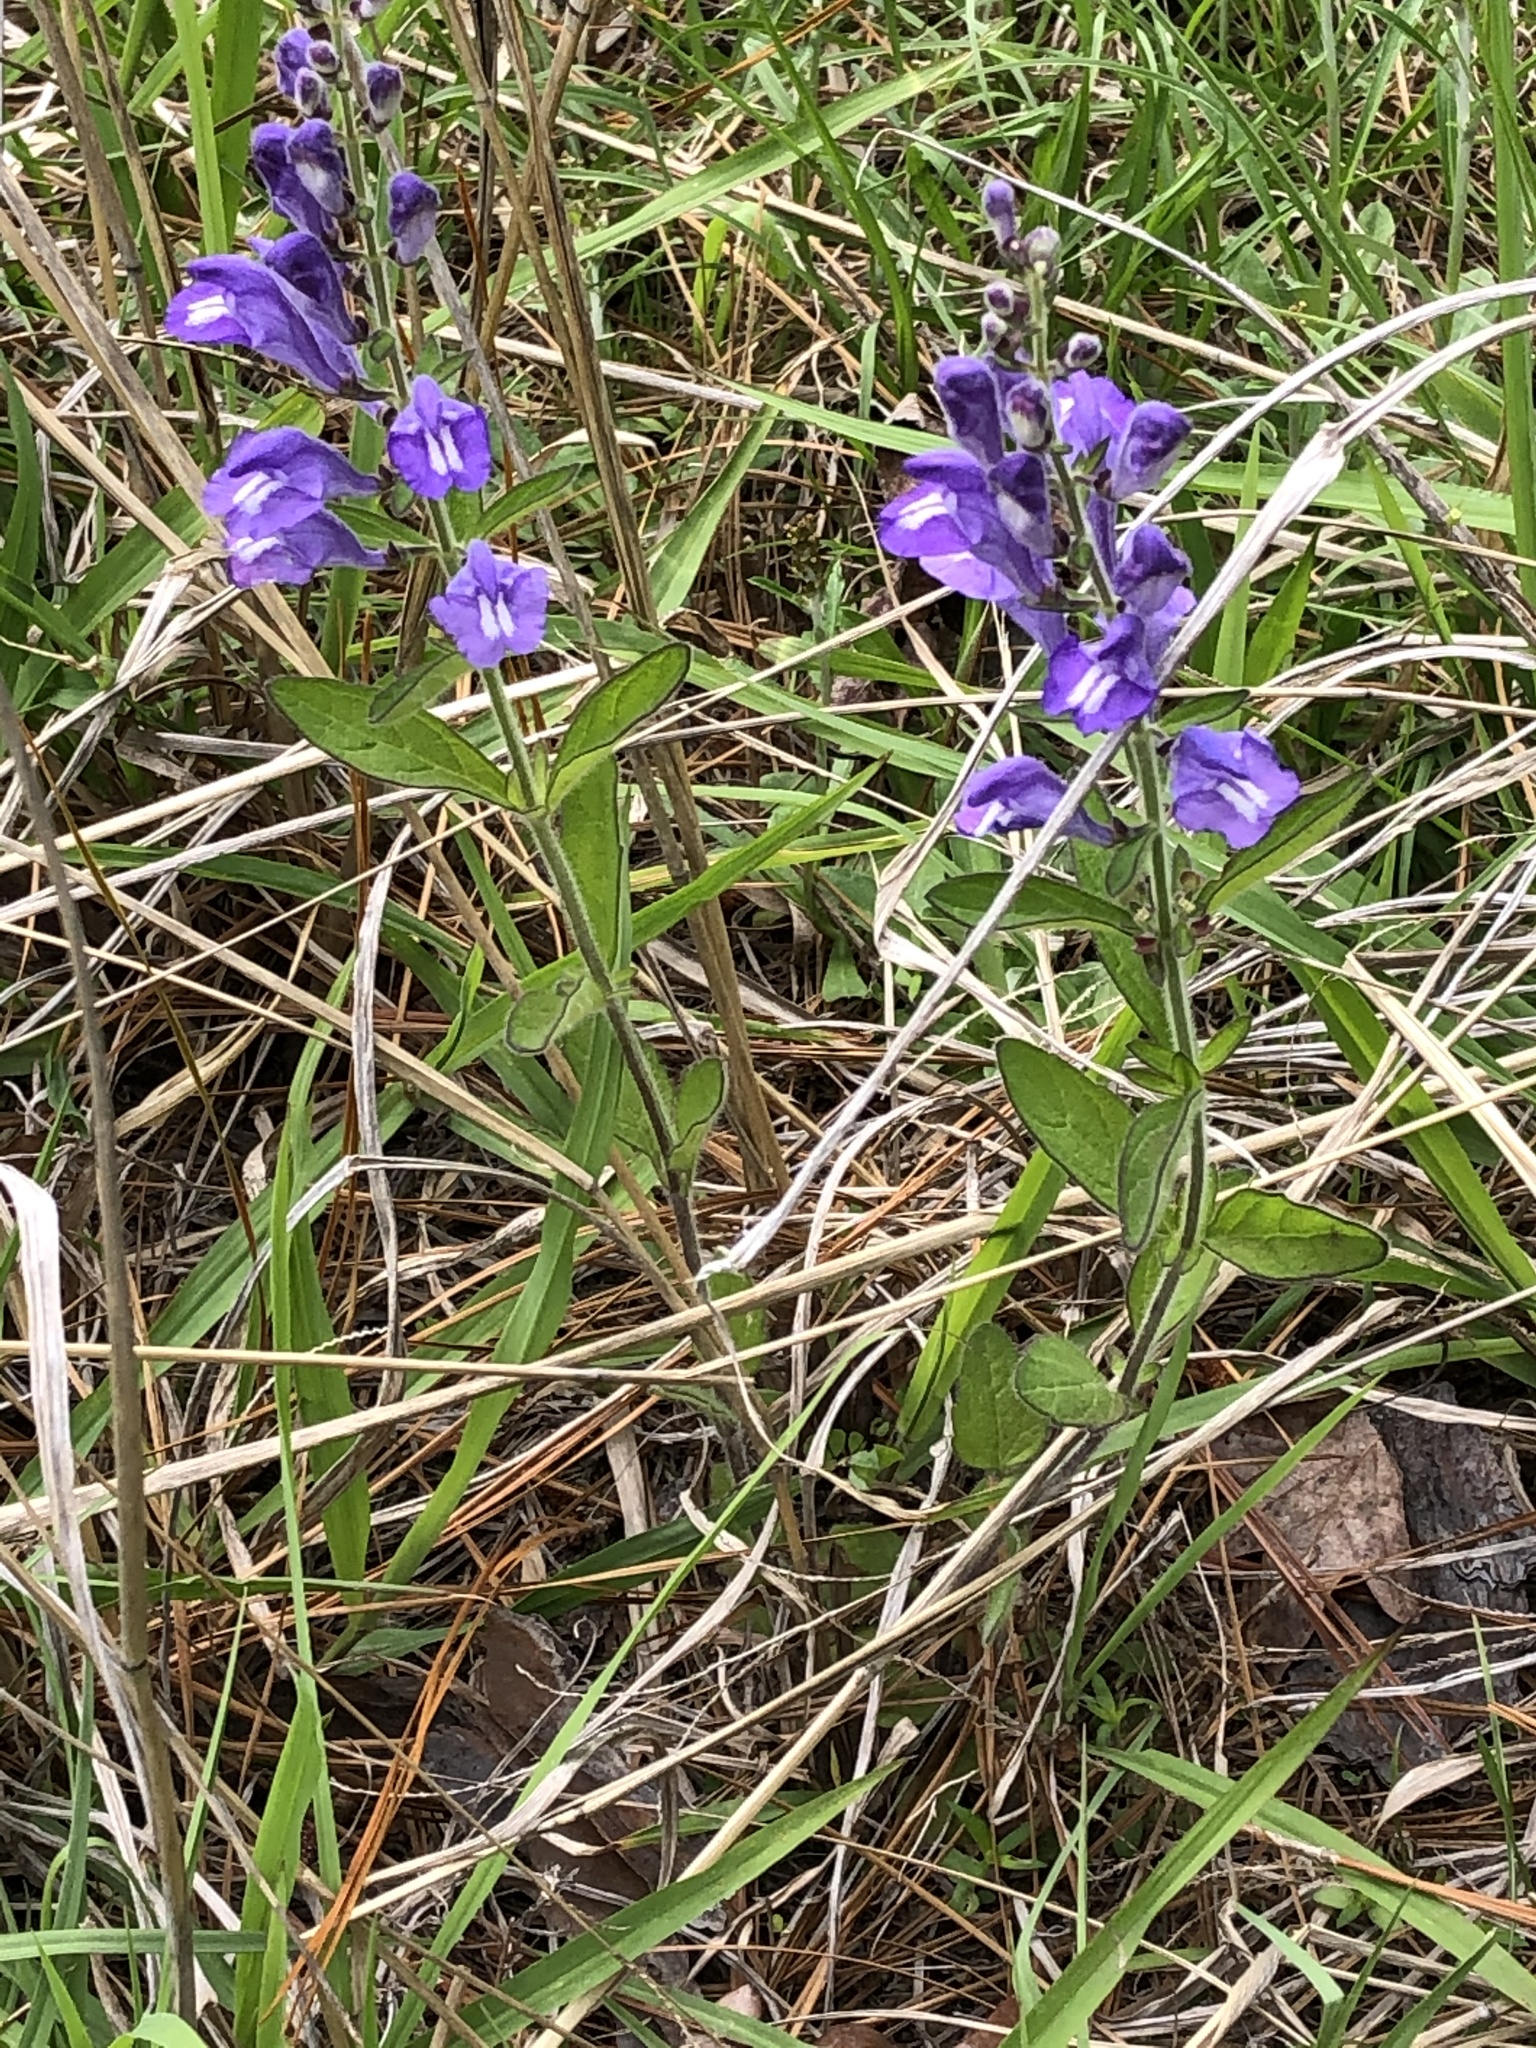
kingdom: Plantae
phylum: Tracheophyta
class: Magnoliopsida
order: Lamiales
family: Lamiaceae
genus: Scutellaria
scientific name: Scutellaria integrifolia
